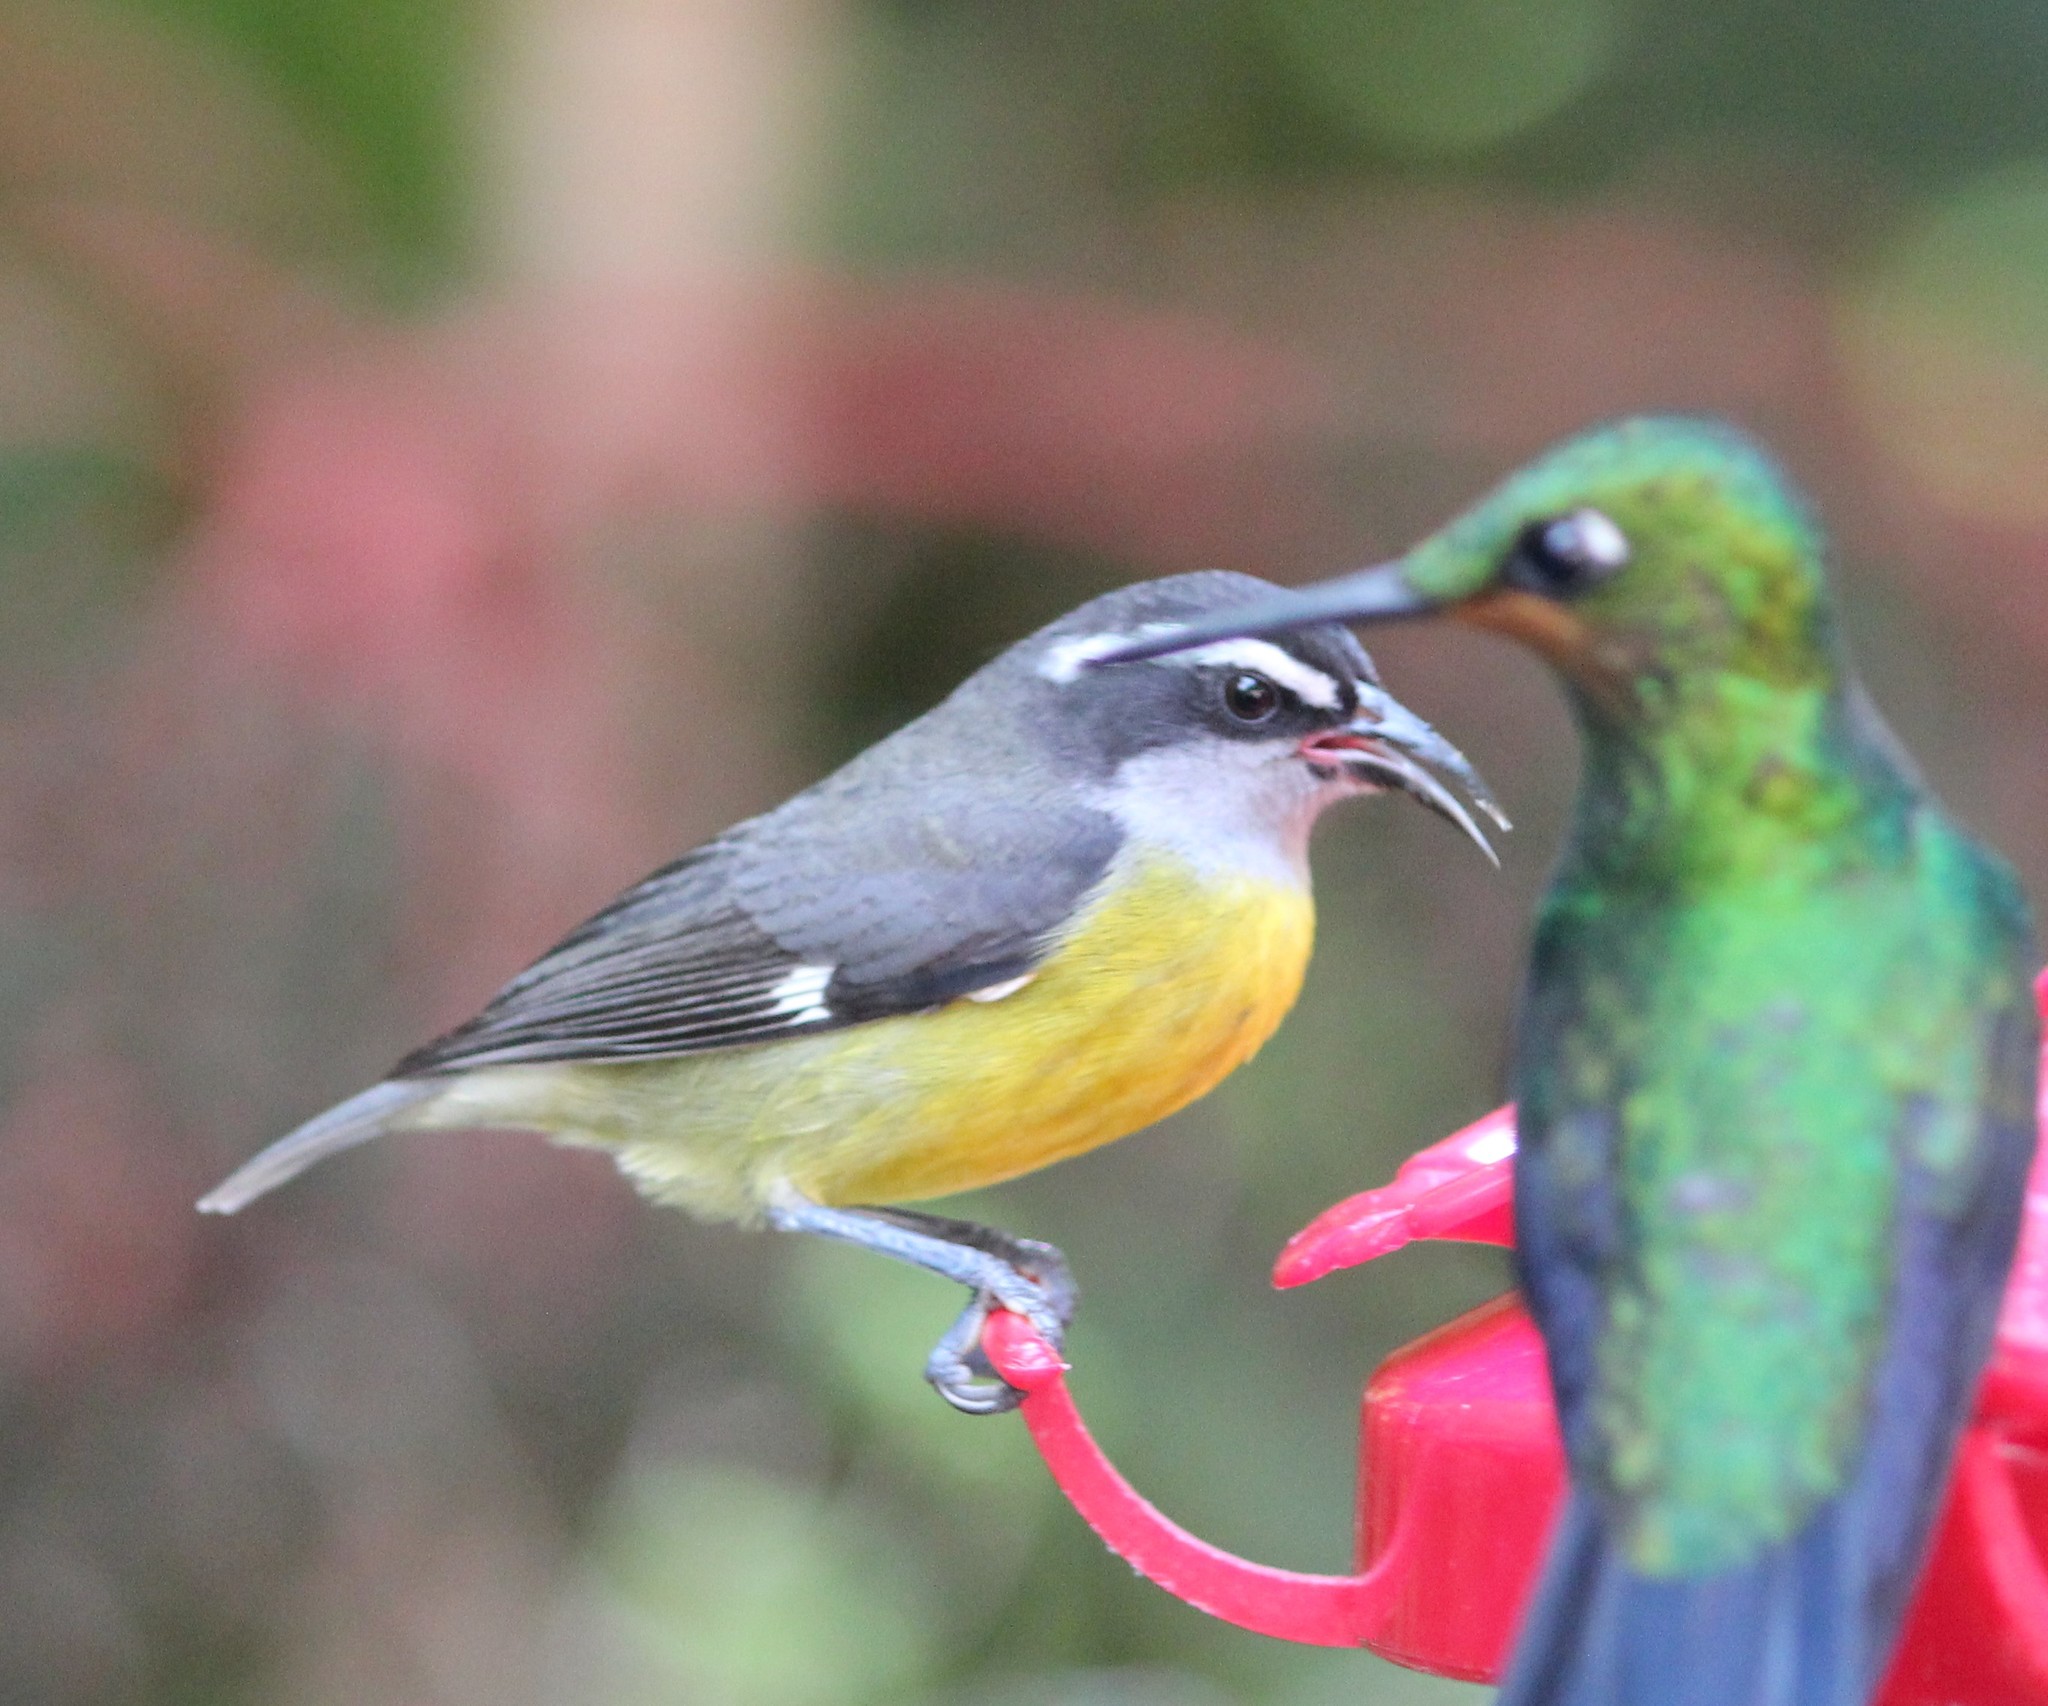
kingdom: Animalia
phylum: Chordata
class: Aves
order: Passeriformes
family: Thraupidae
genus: Coereba
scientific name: Coereba flaveola
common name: Bananaquit
